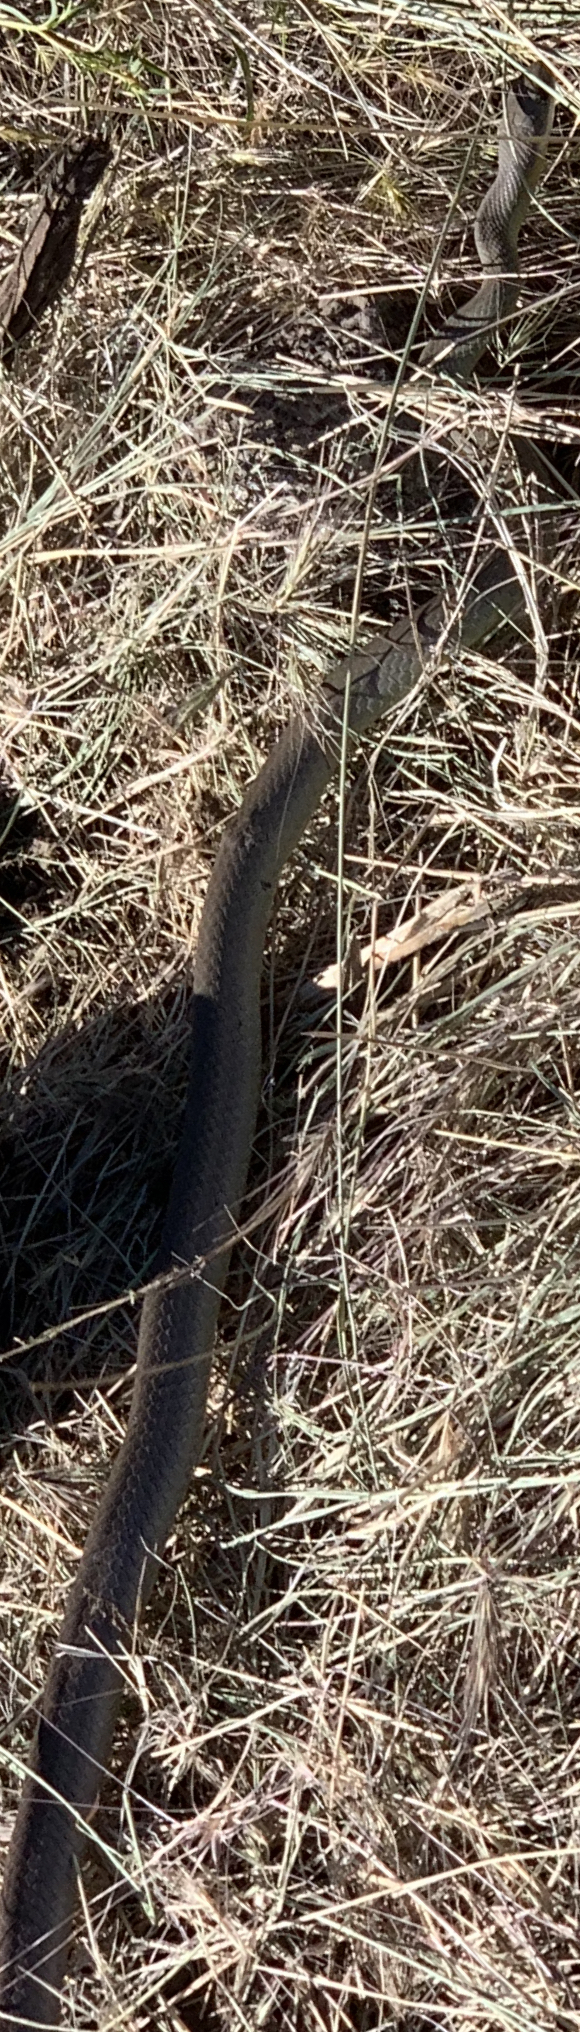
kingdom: Animalia
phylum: Chordata
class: Squamata
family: Colubridae
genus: Coluber
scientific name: Coluber constrictor
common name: Eastern racer
